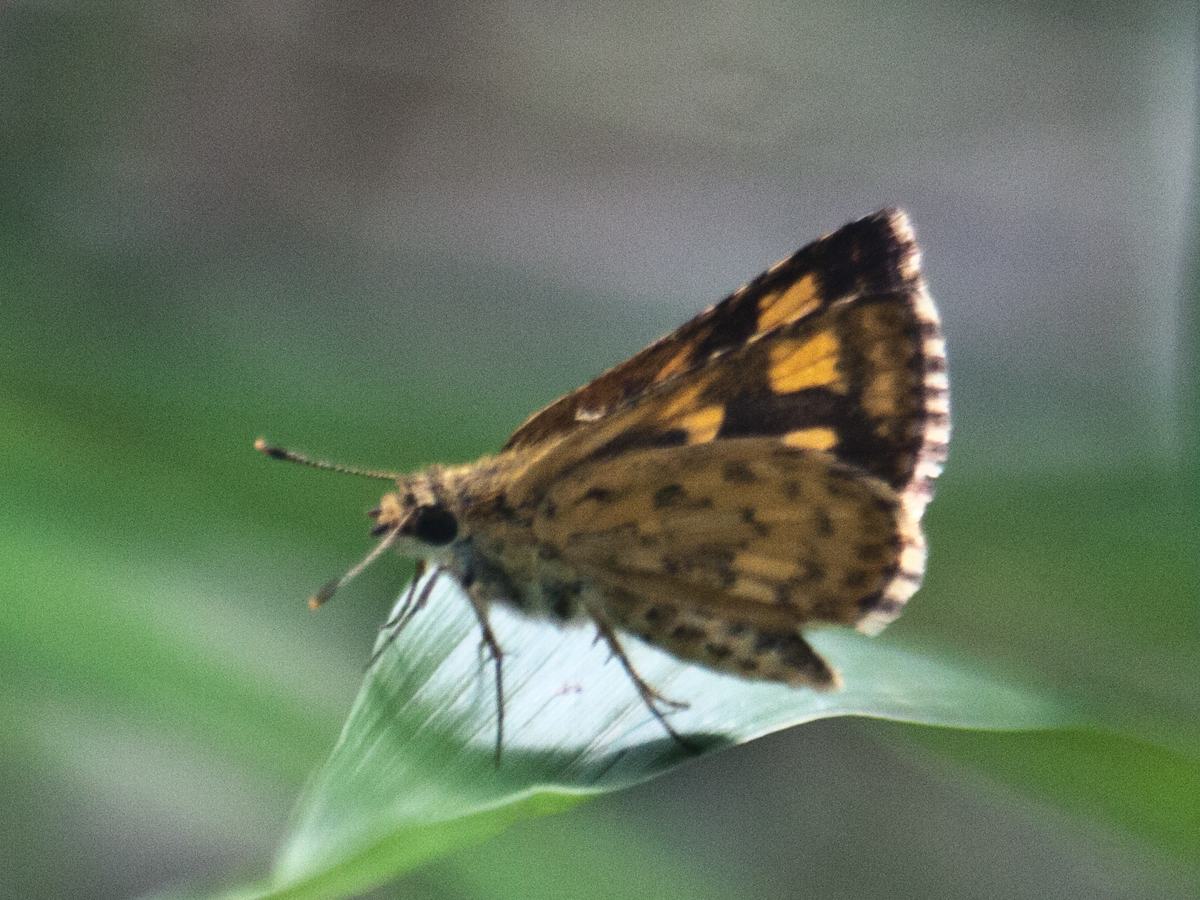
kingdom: Animalia
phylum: Arthropoda
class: Insecta
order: Lepidoptera
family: Hesperiidae
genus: Ampittia
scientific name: Ampittia dioscorides
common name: Common bush hopper
